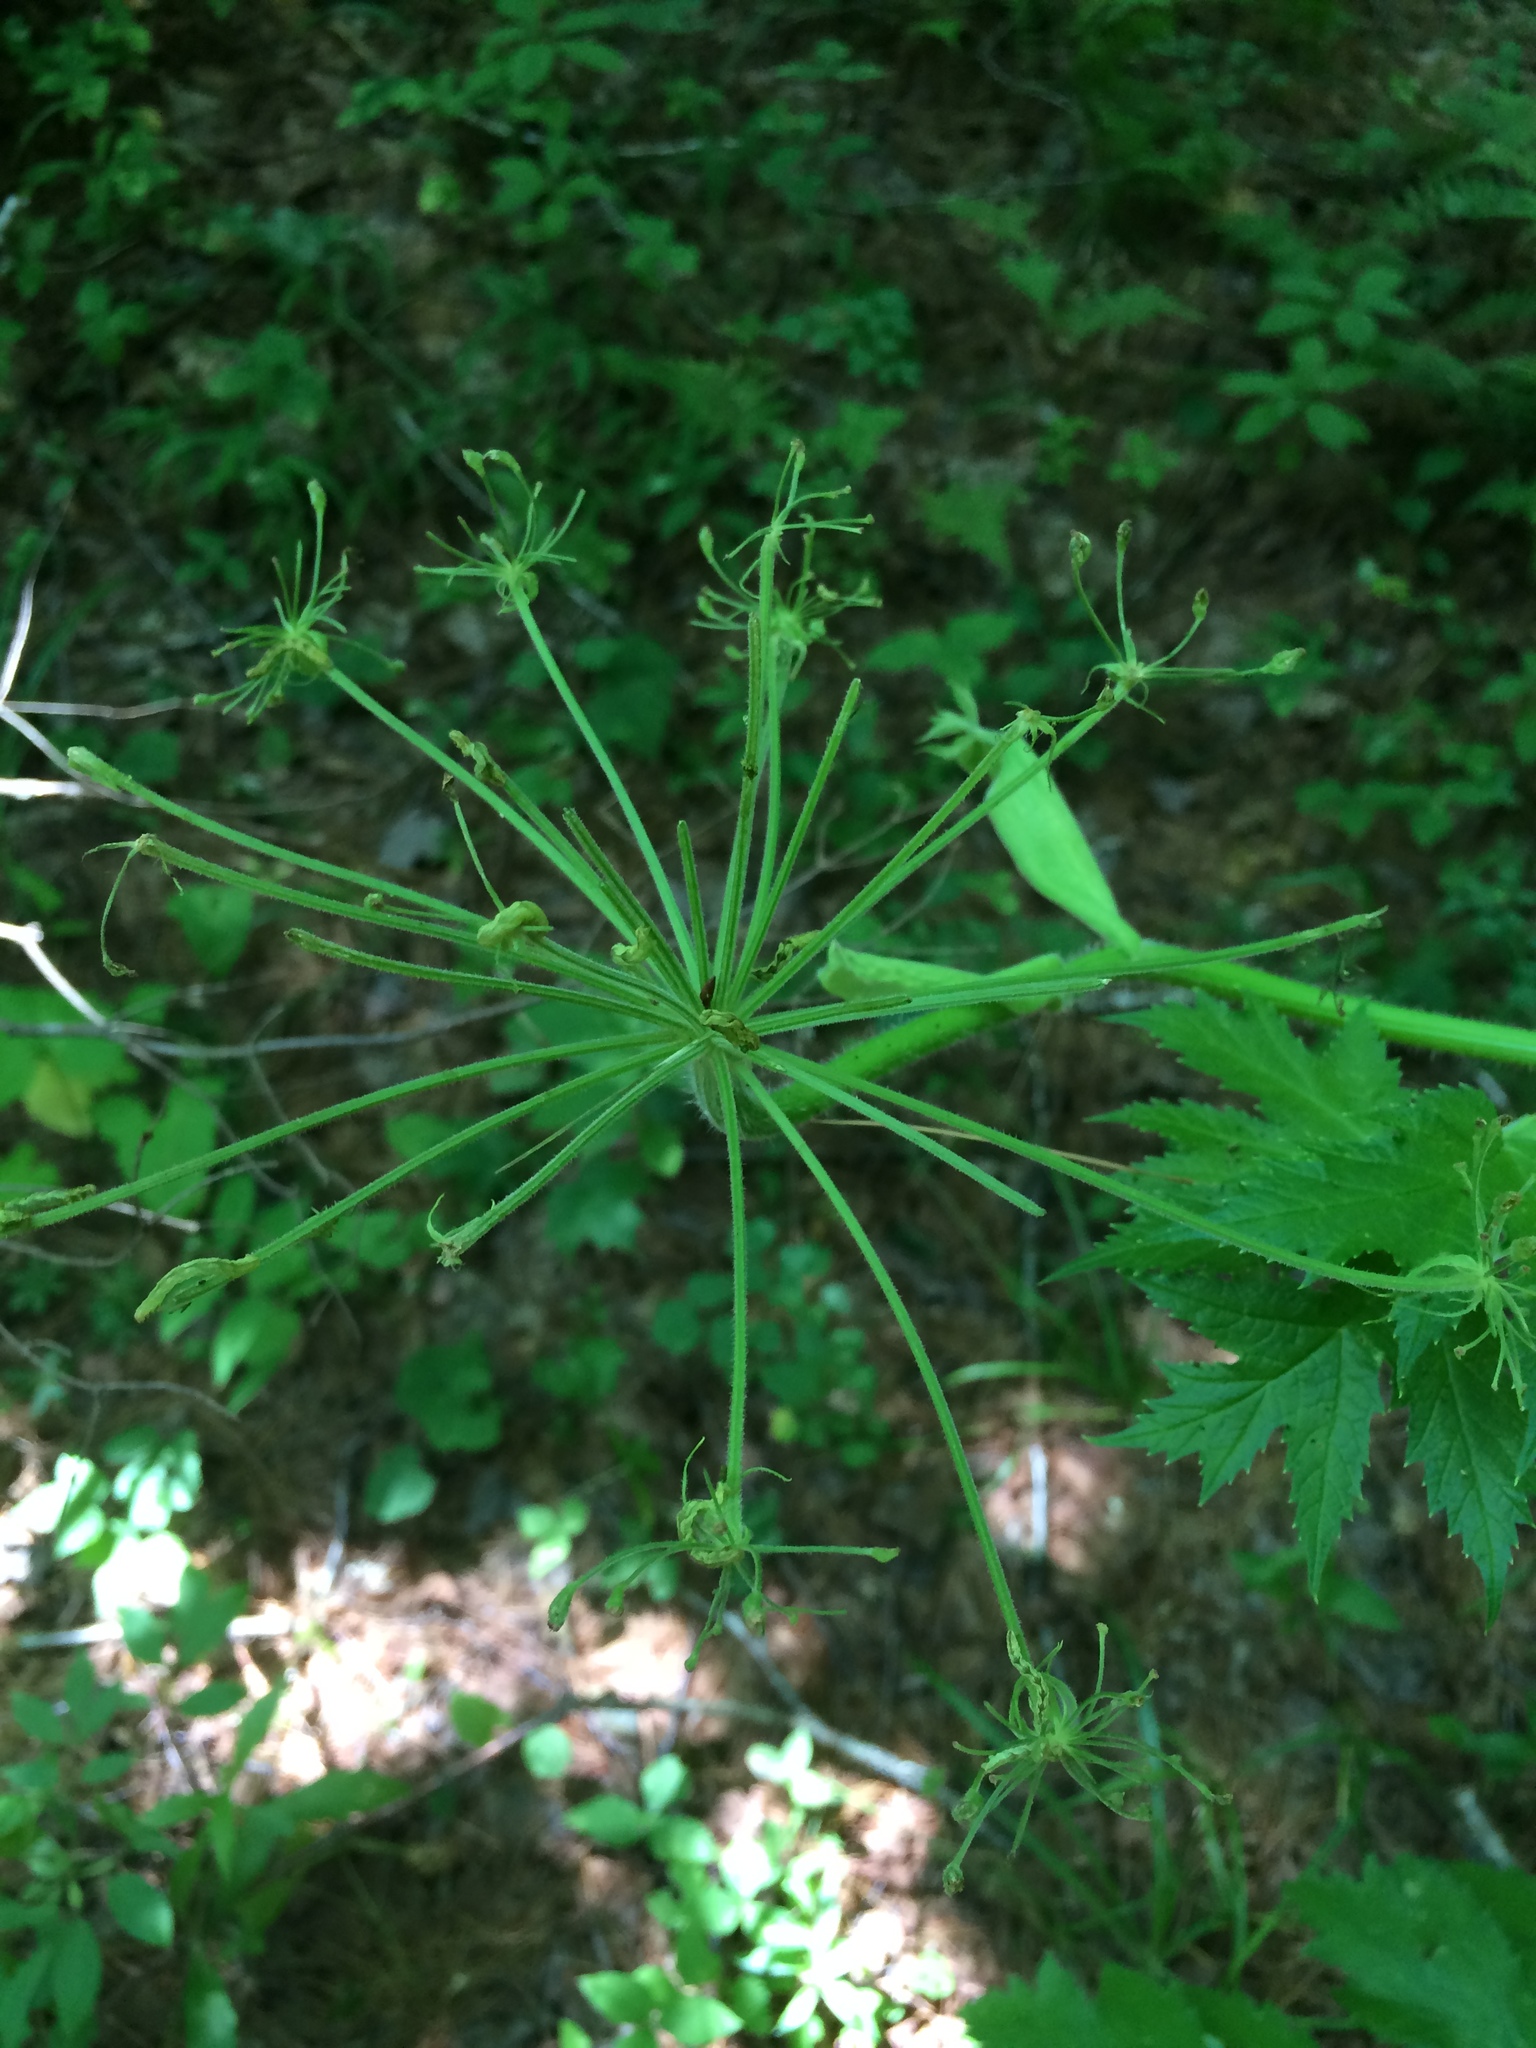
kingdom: Plantae
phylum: Tracheophyta
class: Magnoliopsida
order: Apiales
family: Apiaceae
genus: Heracleum
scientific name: Heracleum maximum
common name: American cow parsnip
